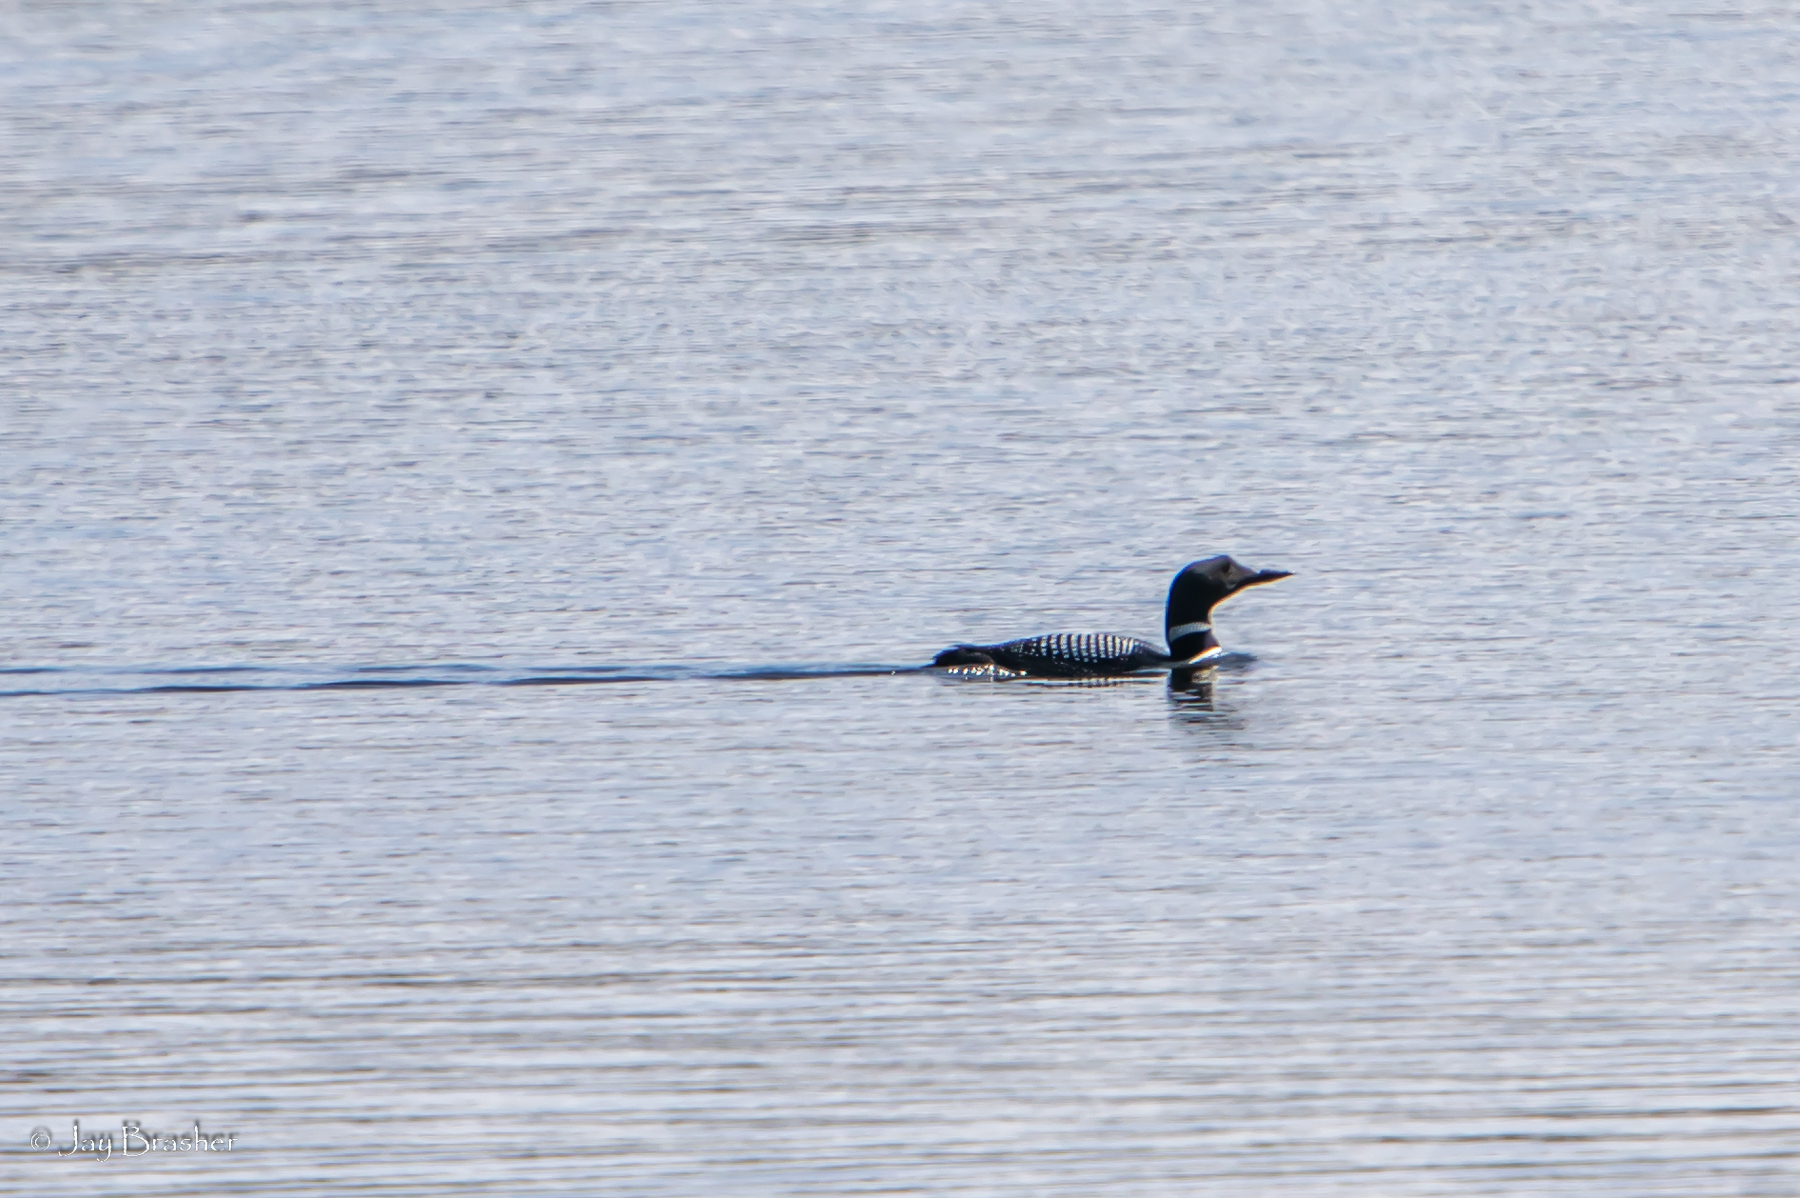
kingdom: Animalia
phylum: Chordata
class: Aves
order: Gaviiformes
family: Gaviidae
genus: Gavia
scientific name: Gavia immer
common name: Common loon
